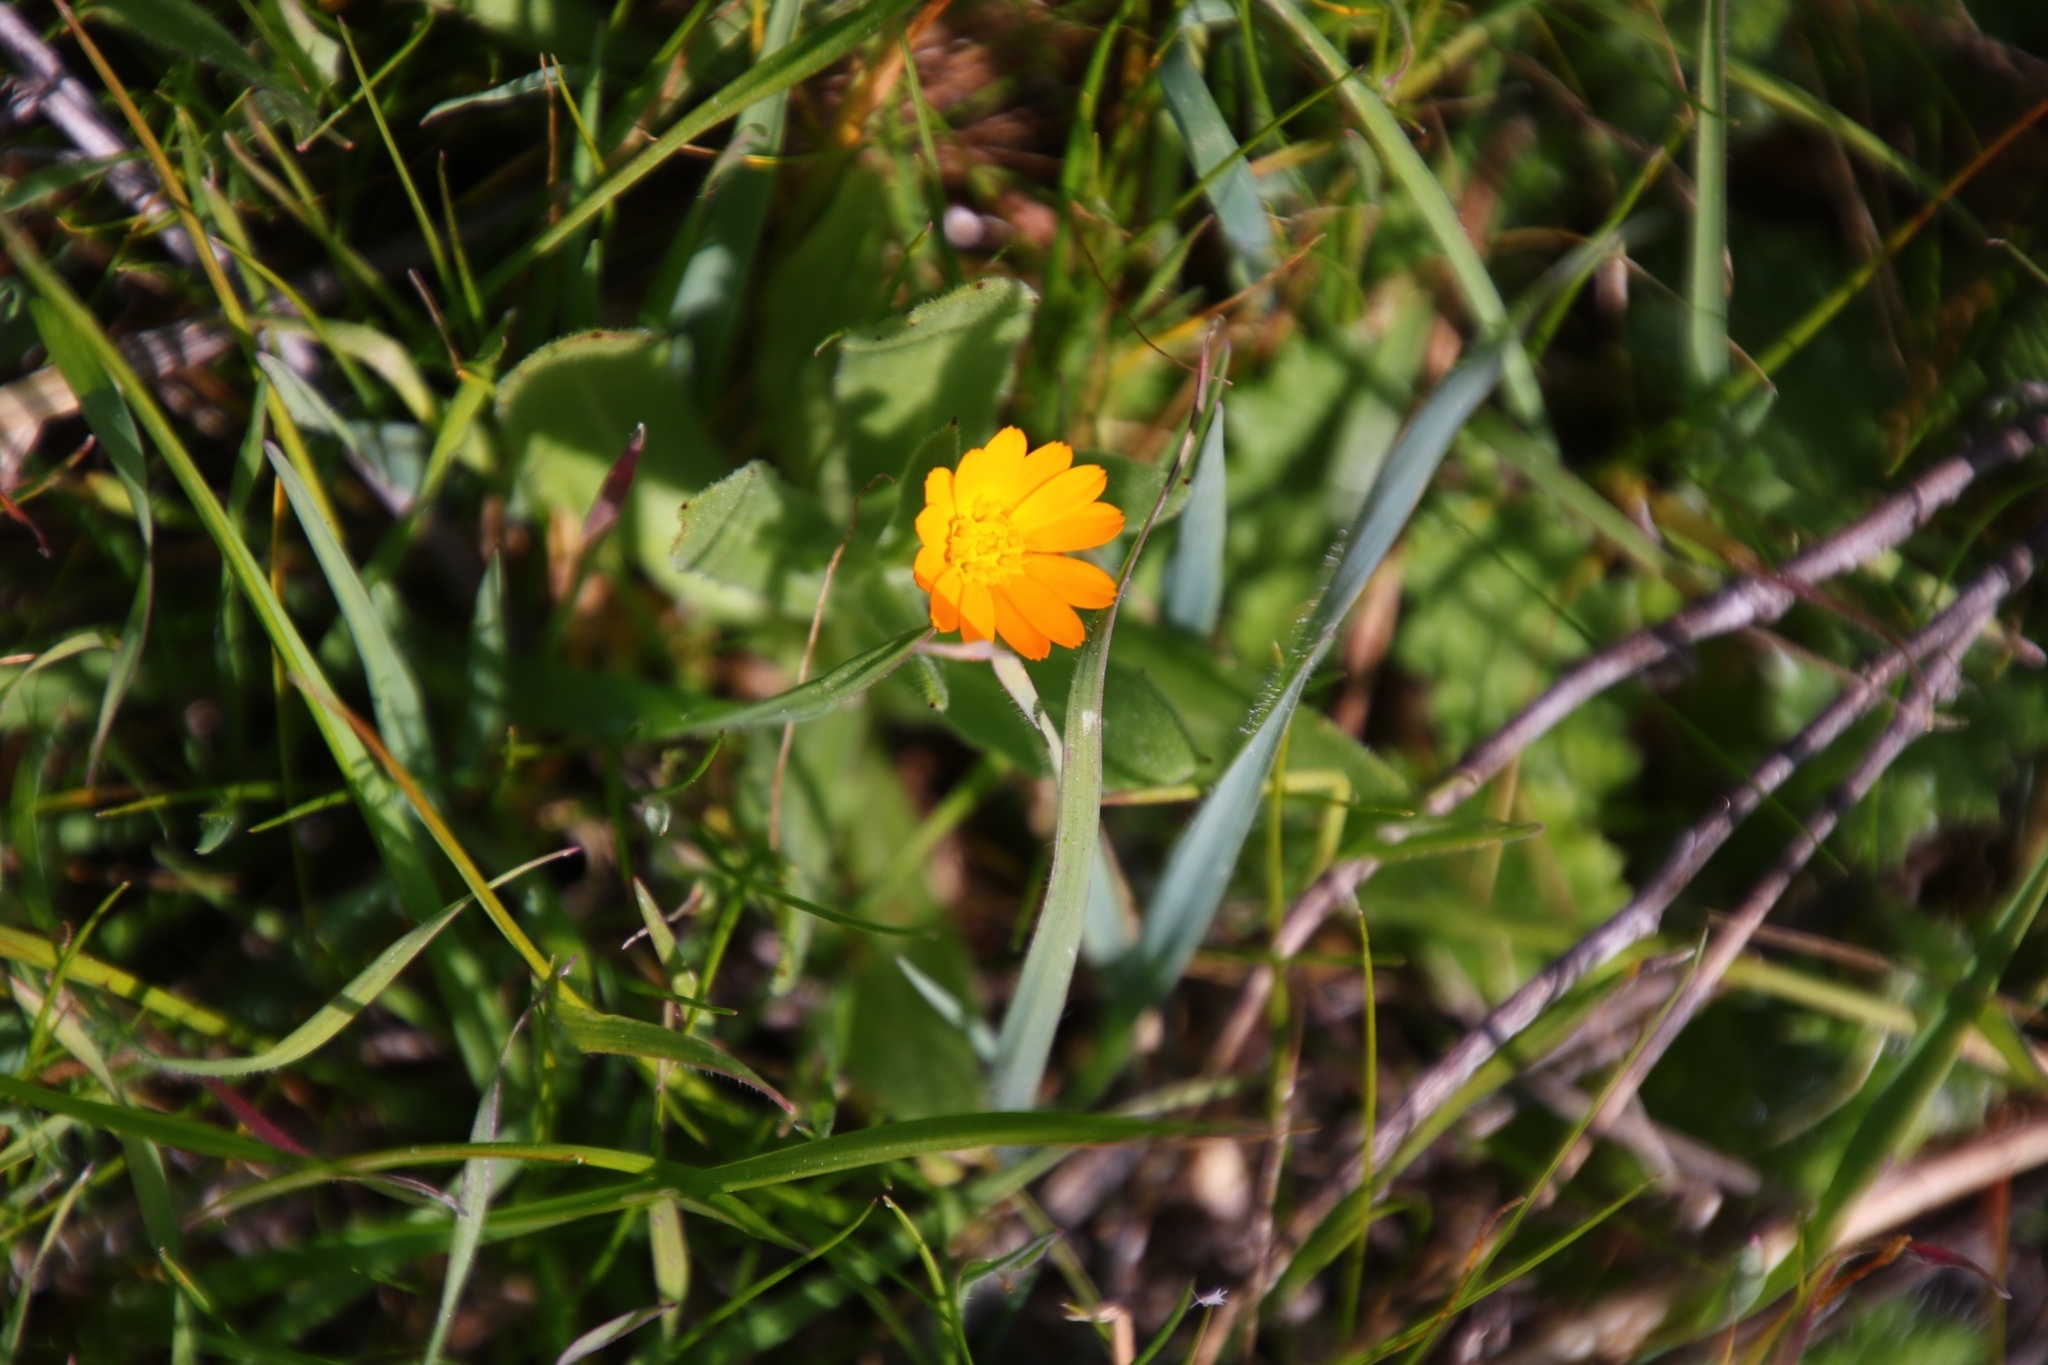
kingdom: Plantae
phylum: Tracheophyta
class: Magnoliopsida
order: Asterales
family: Asteraceae
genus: Calendula
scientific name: Calendula arvensis
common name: Field marigold
